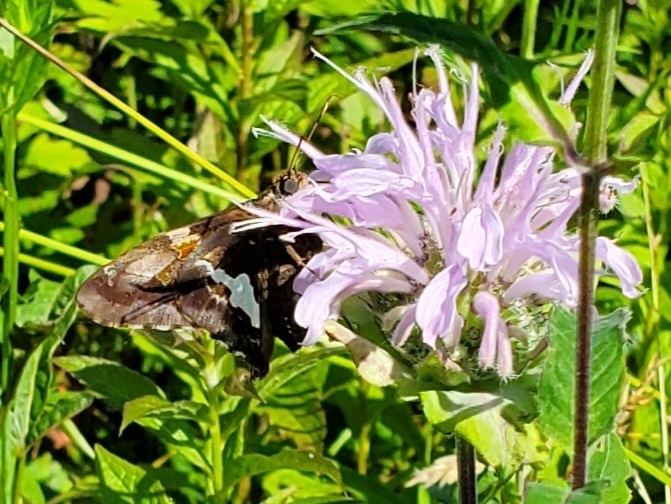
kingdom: Animalia
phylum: Arthropoda
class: Insecta
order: Lepidoptera
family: Hesperiidae
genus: Epargyreus
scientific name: Epargyreus clarus
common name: Silver-spotted skipper
